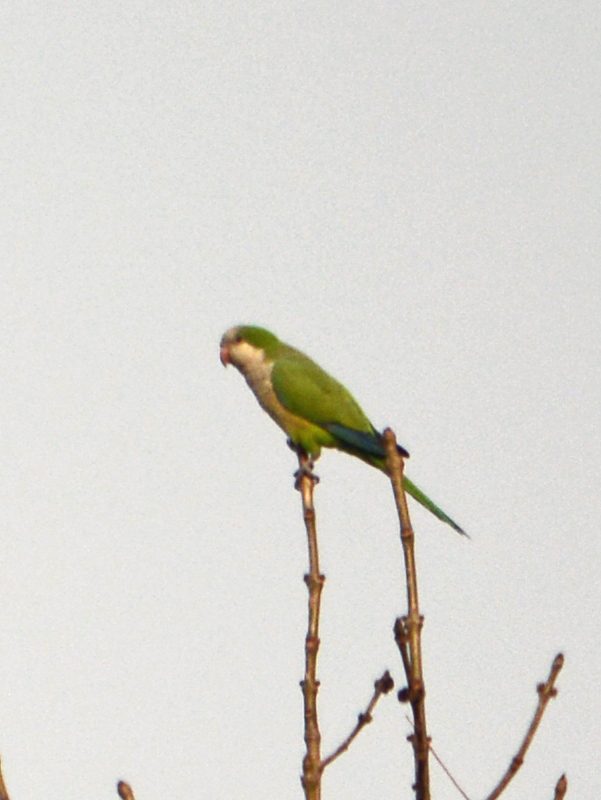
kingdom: Animalia
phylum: Chordata
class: Aves
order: Psittaciformes
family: Psittacidae
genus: Myiopsitta
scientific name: Myiopsitta monachus
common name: Monk parakeet
